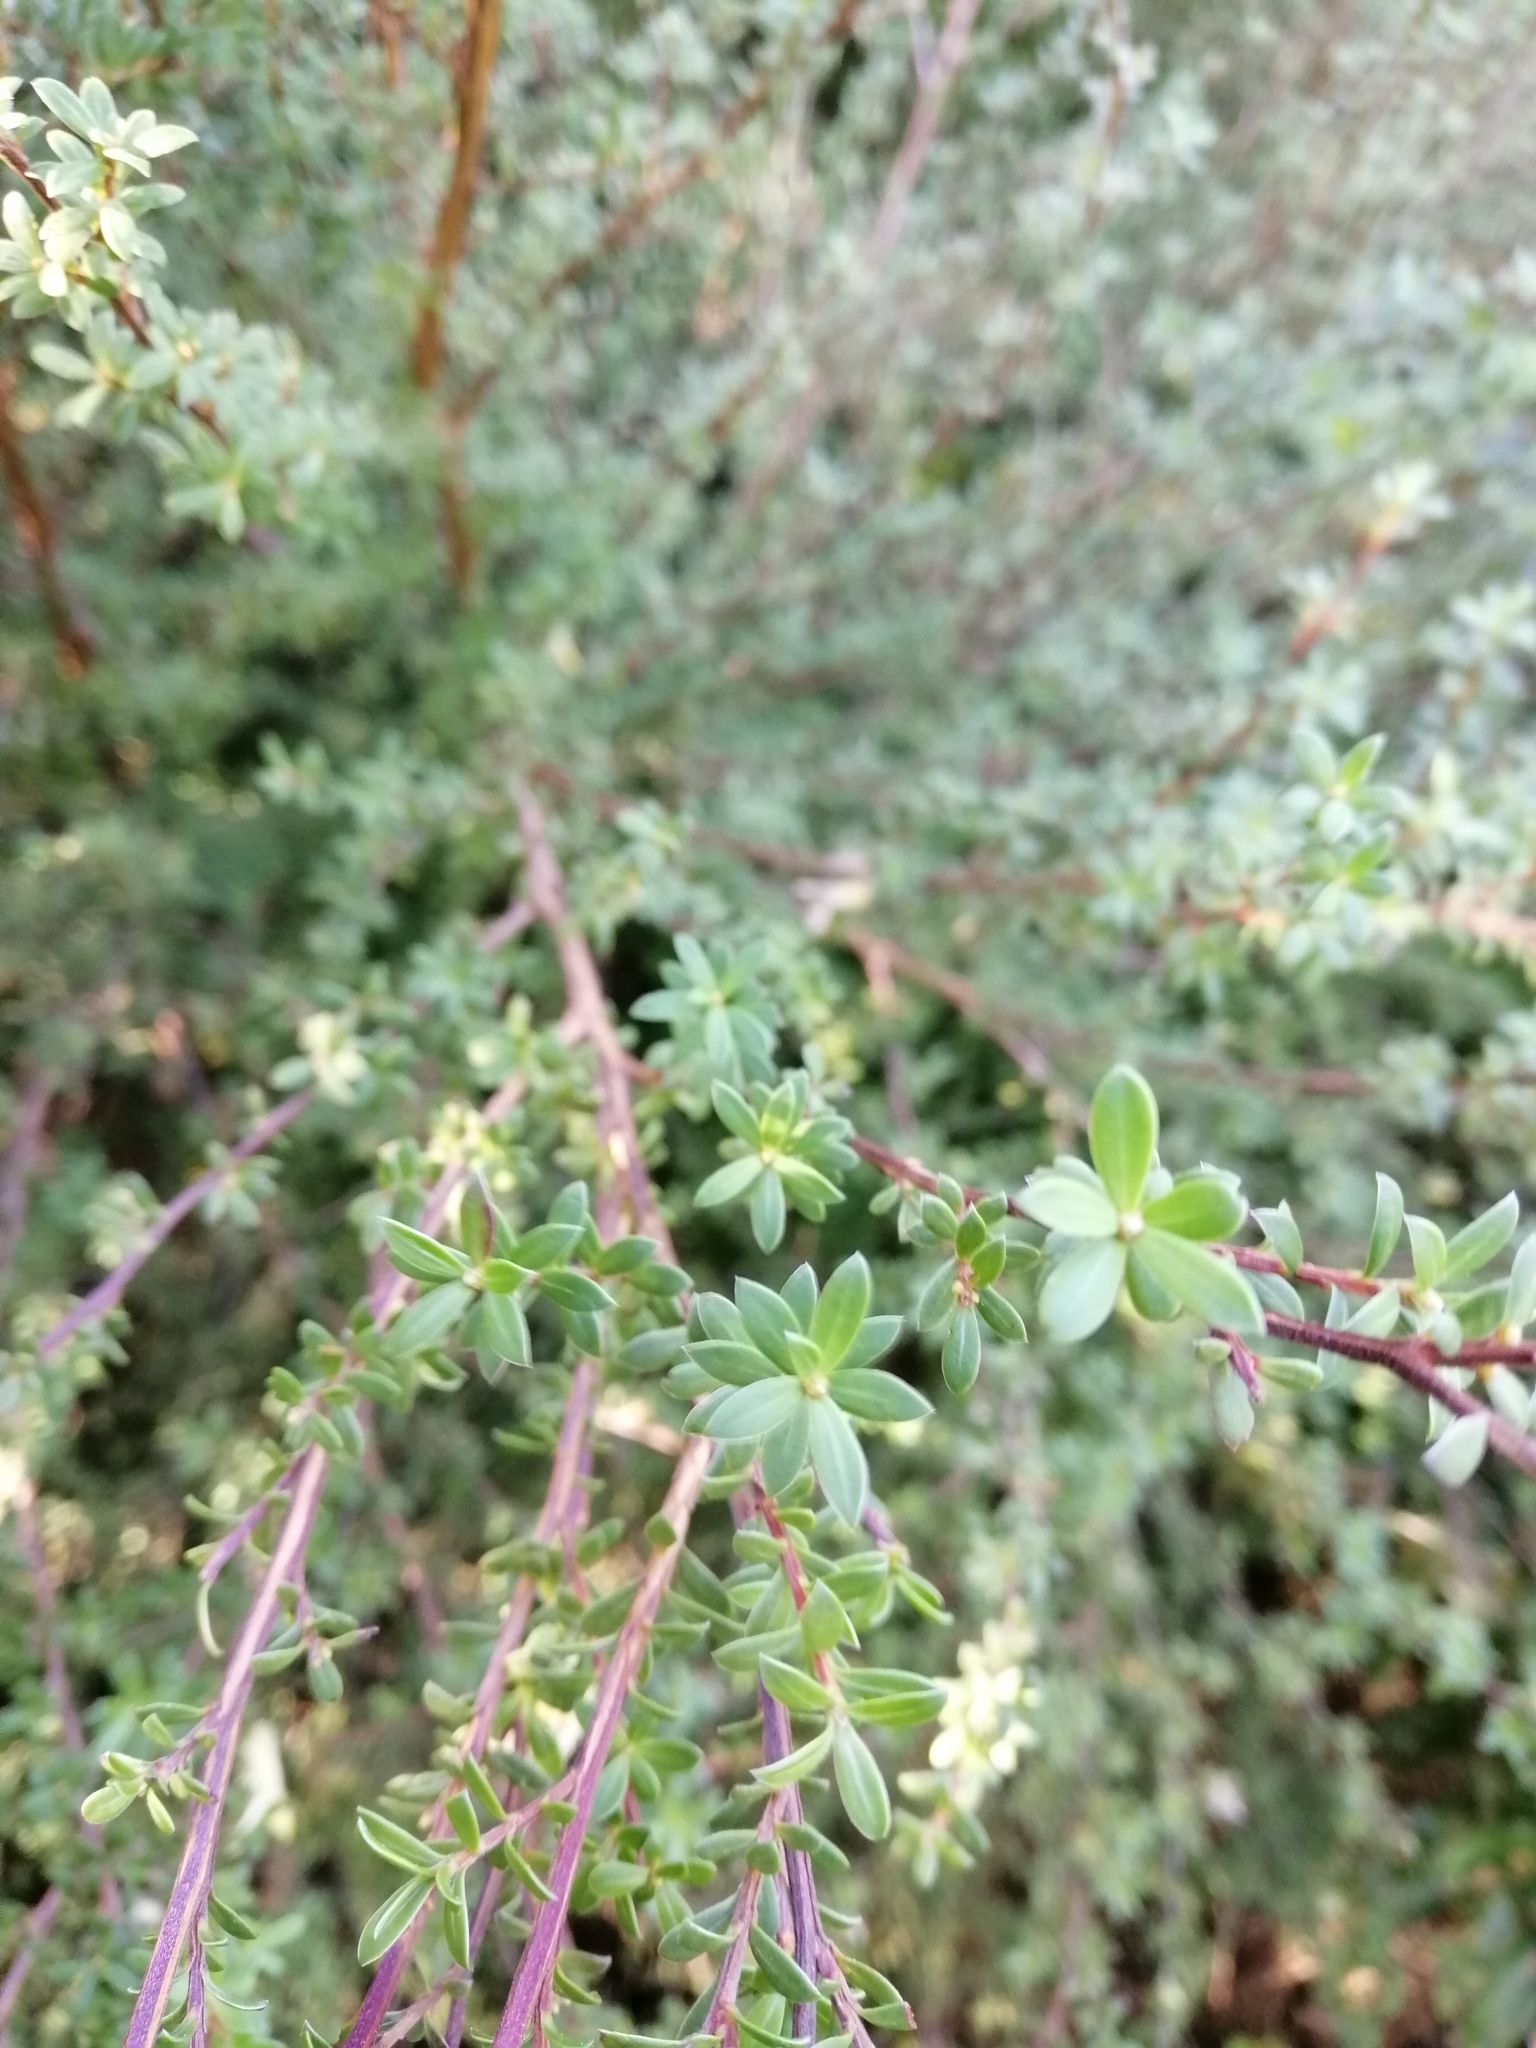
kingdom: Plantae
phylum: Tracheophyta
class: Magnoliopsida
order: Myrtales
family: Myrtaceae
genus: Kunzea
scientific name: Kunzea amathicola
